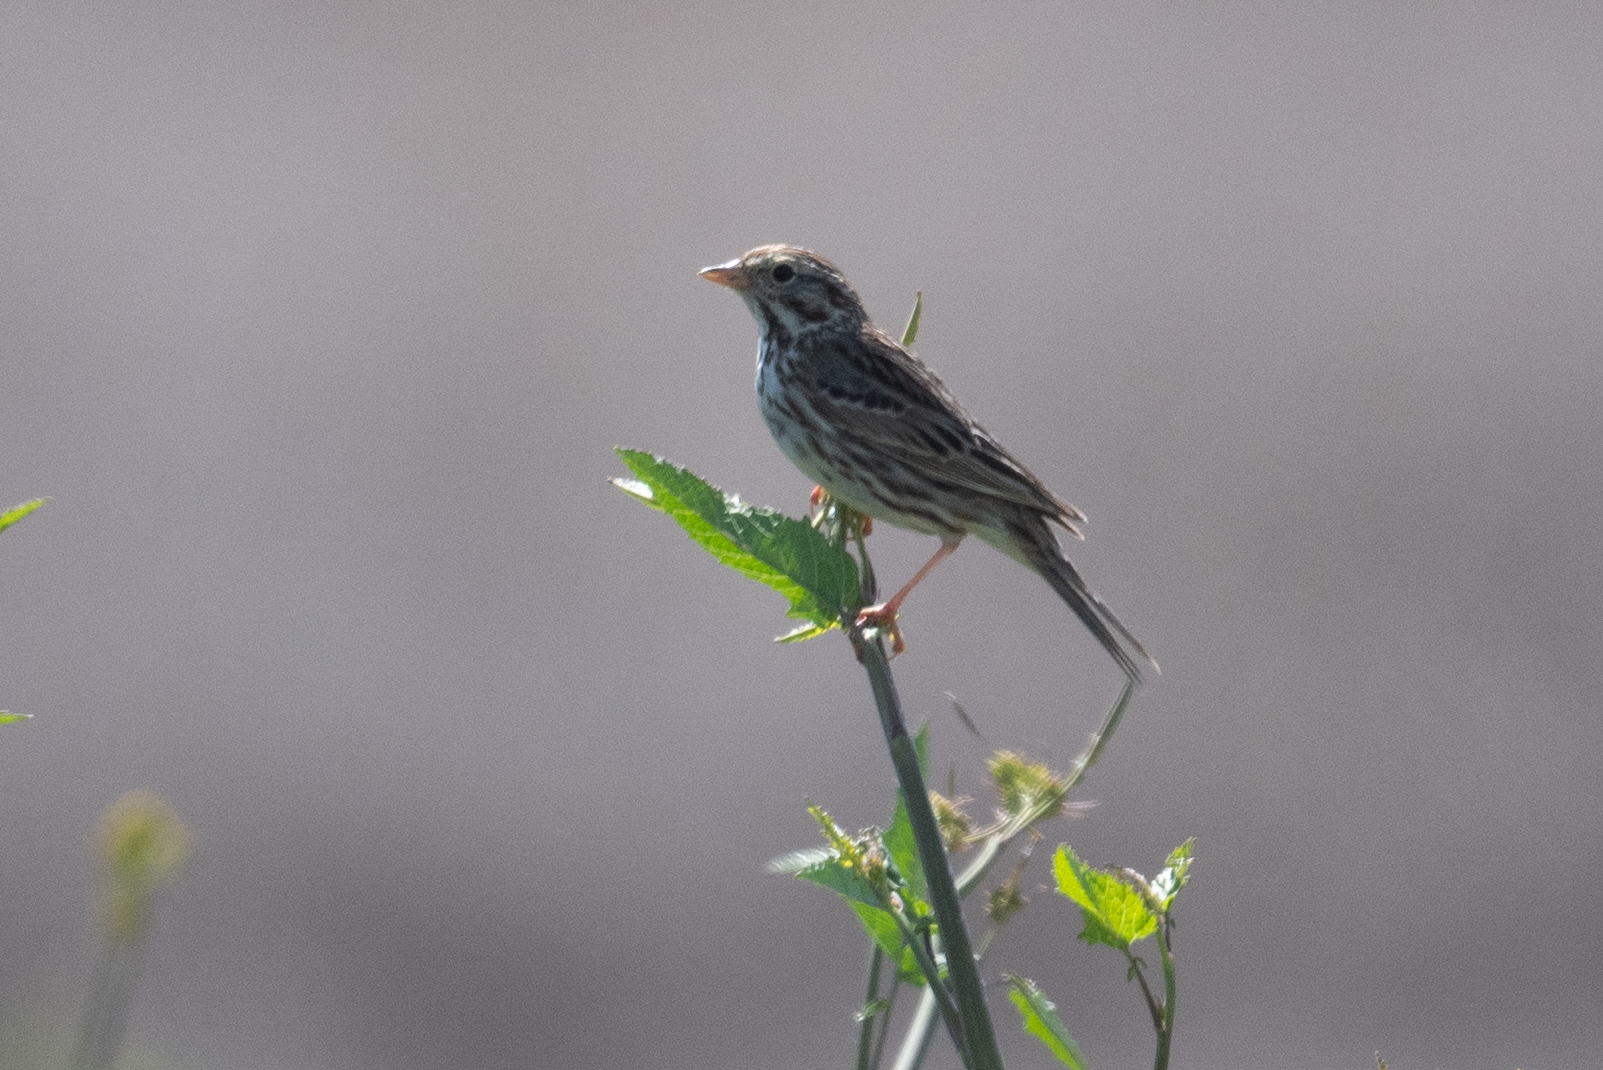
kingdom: Animalia
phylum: Chordata
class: Aves
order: Passeriformes
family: Passerellidae
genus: Passerculus
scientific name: Passerculus sandwichensis
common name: Savannah sparrow
